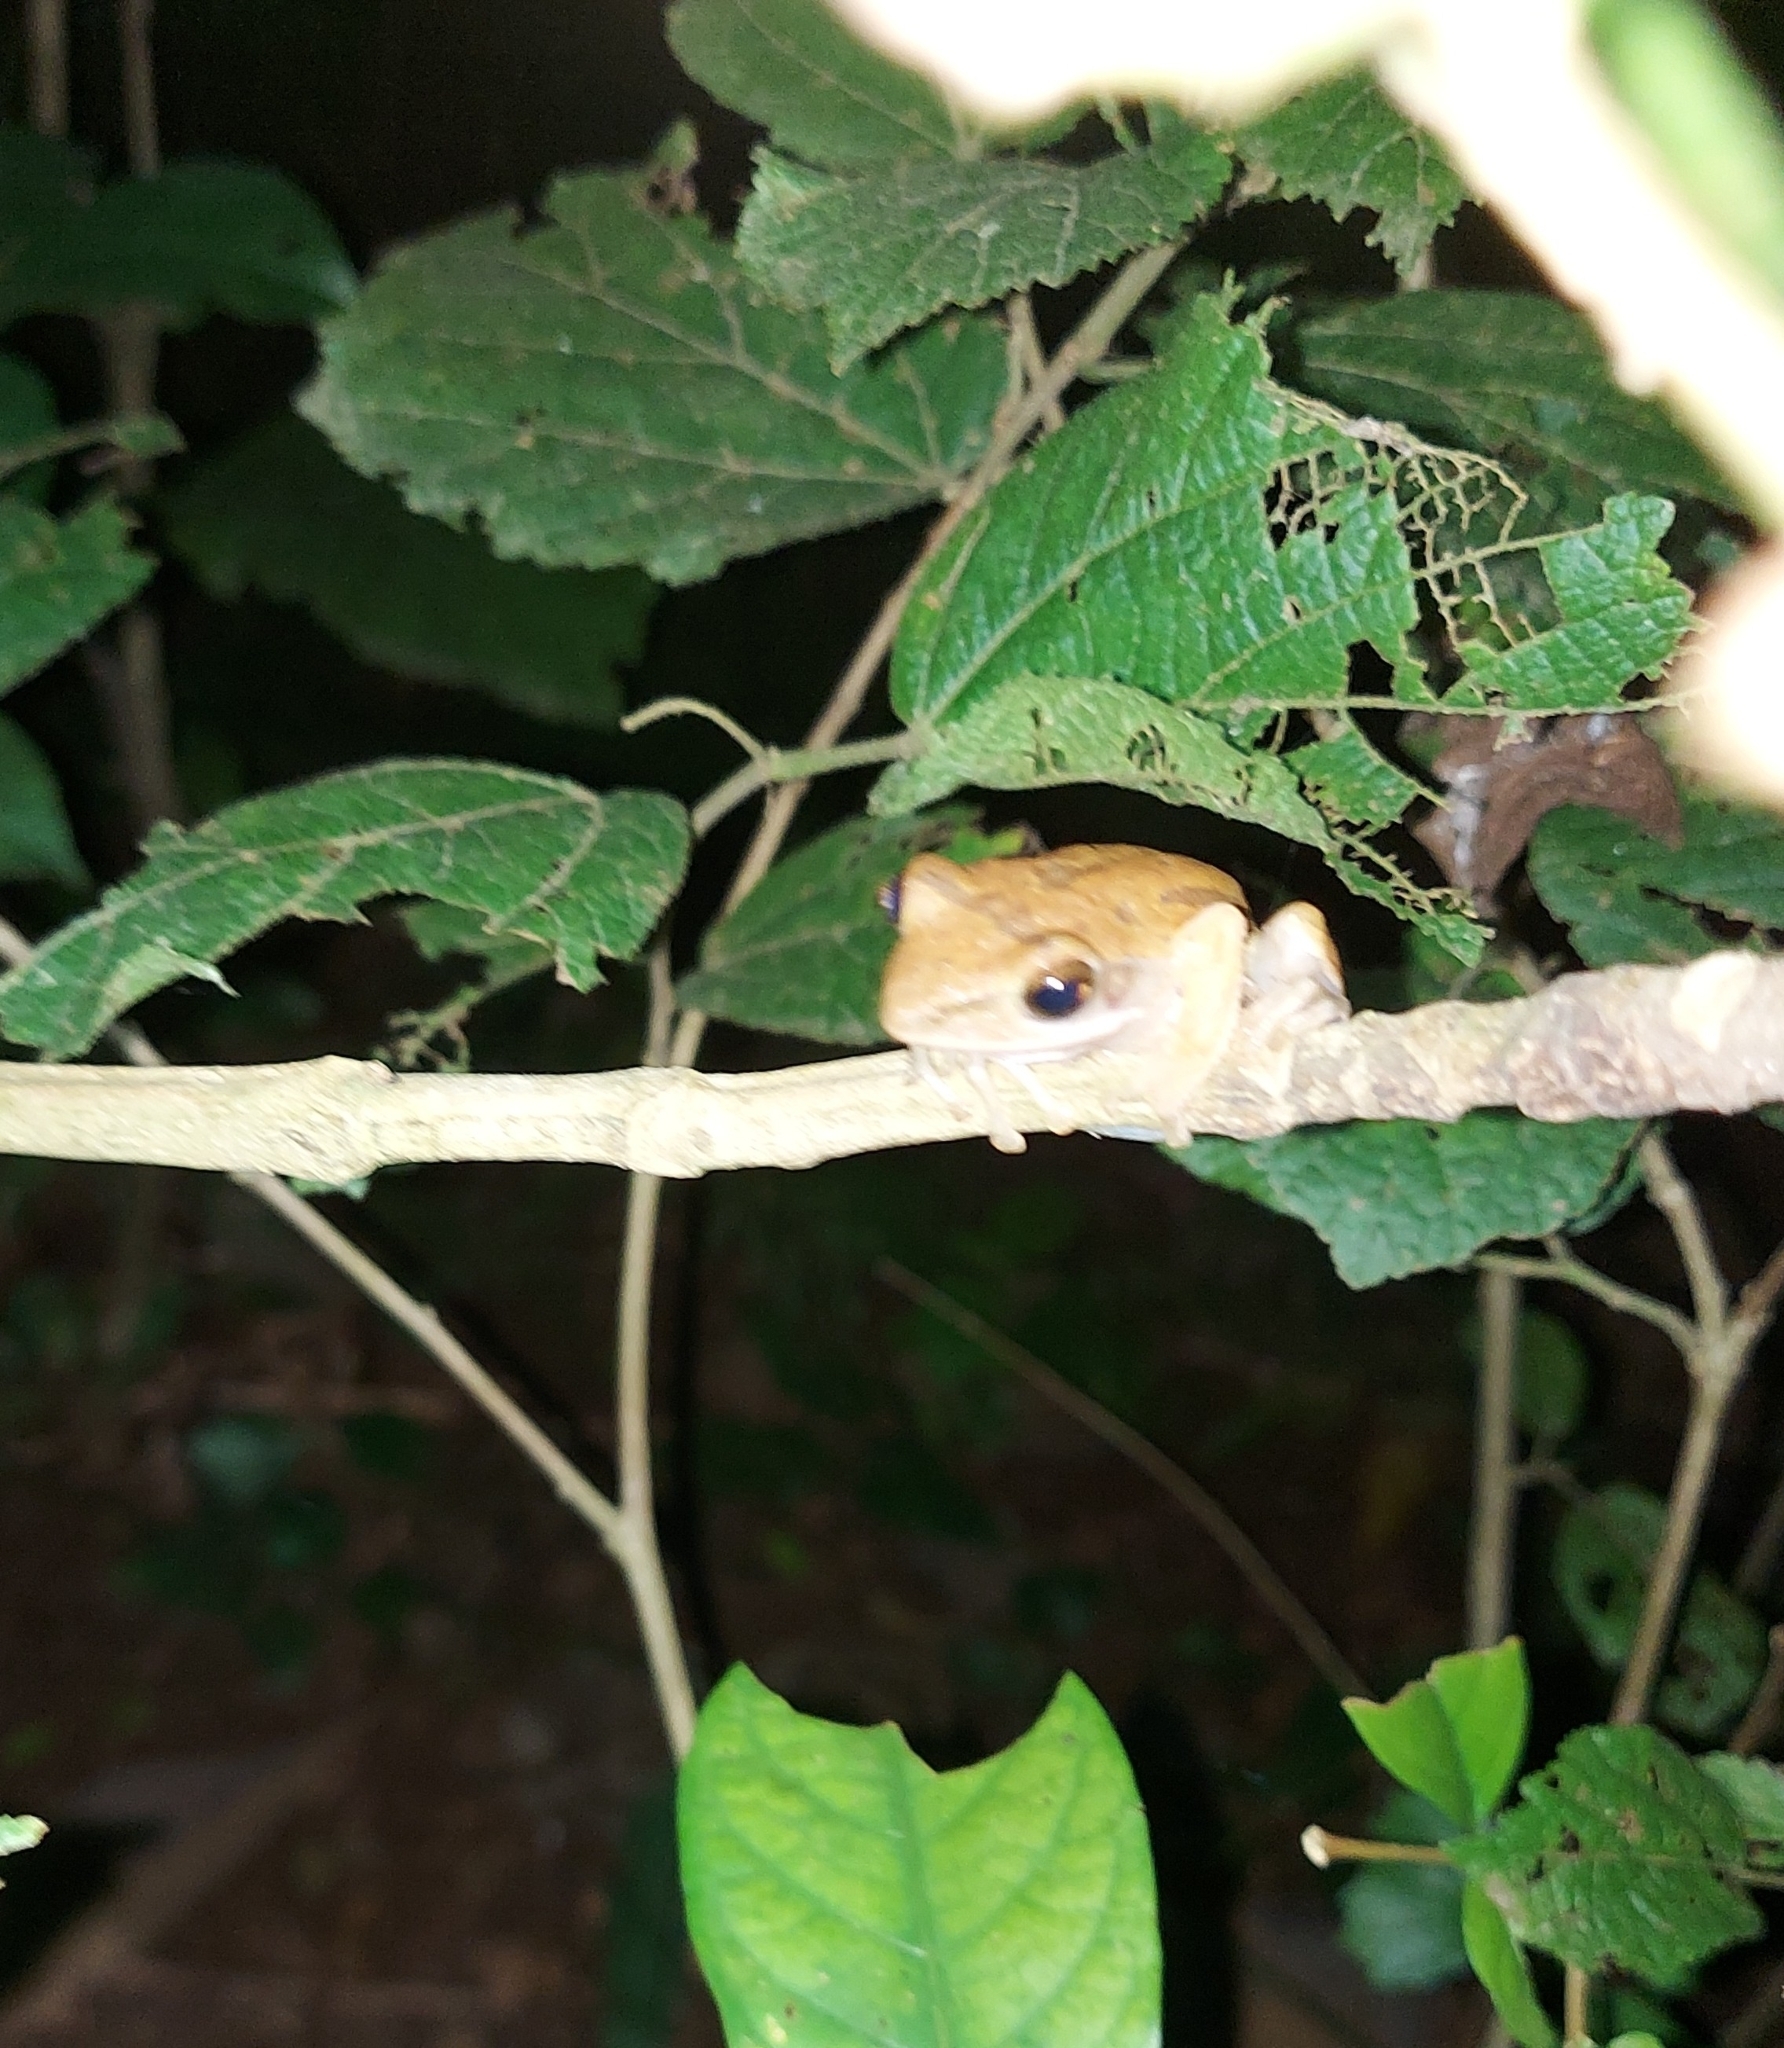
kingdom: Animalia
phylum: Chordata
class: Amphibia
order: Anura
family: Rhacophoridae
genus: Polypedates
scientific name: Polypedates maculatus
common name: Himalayan tree frog
